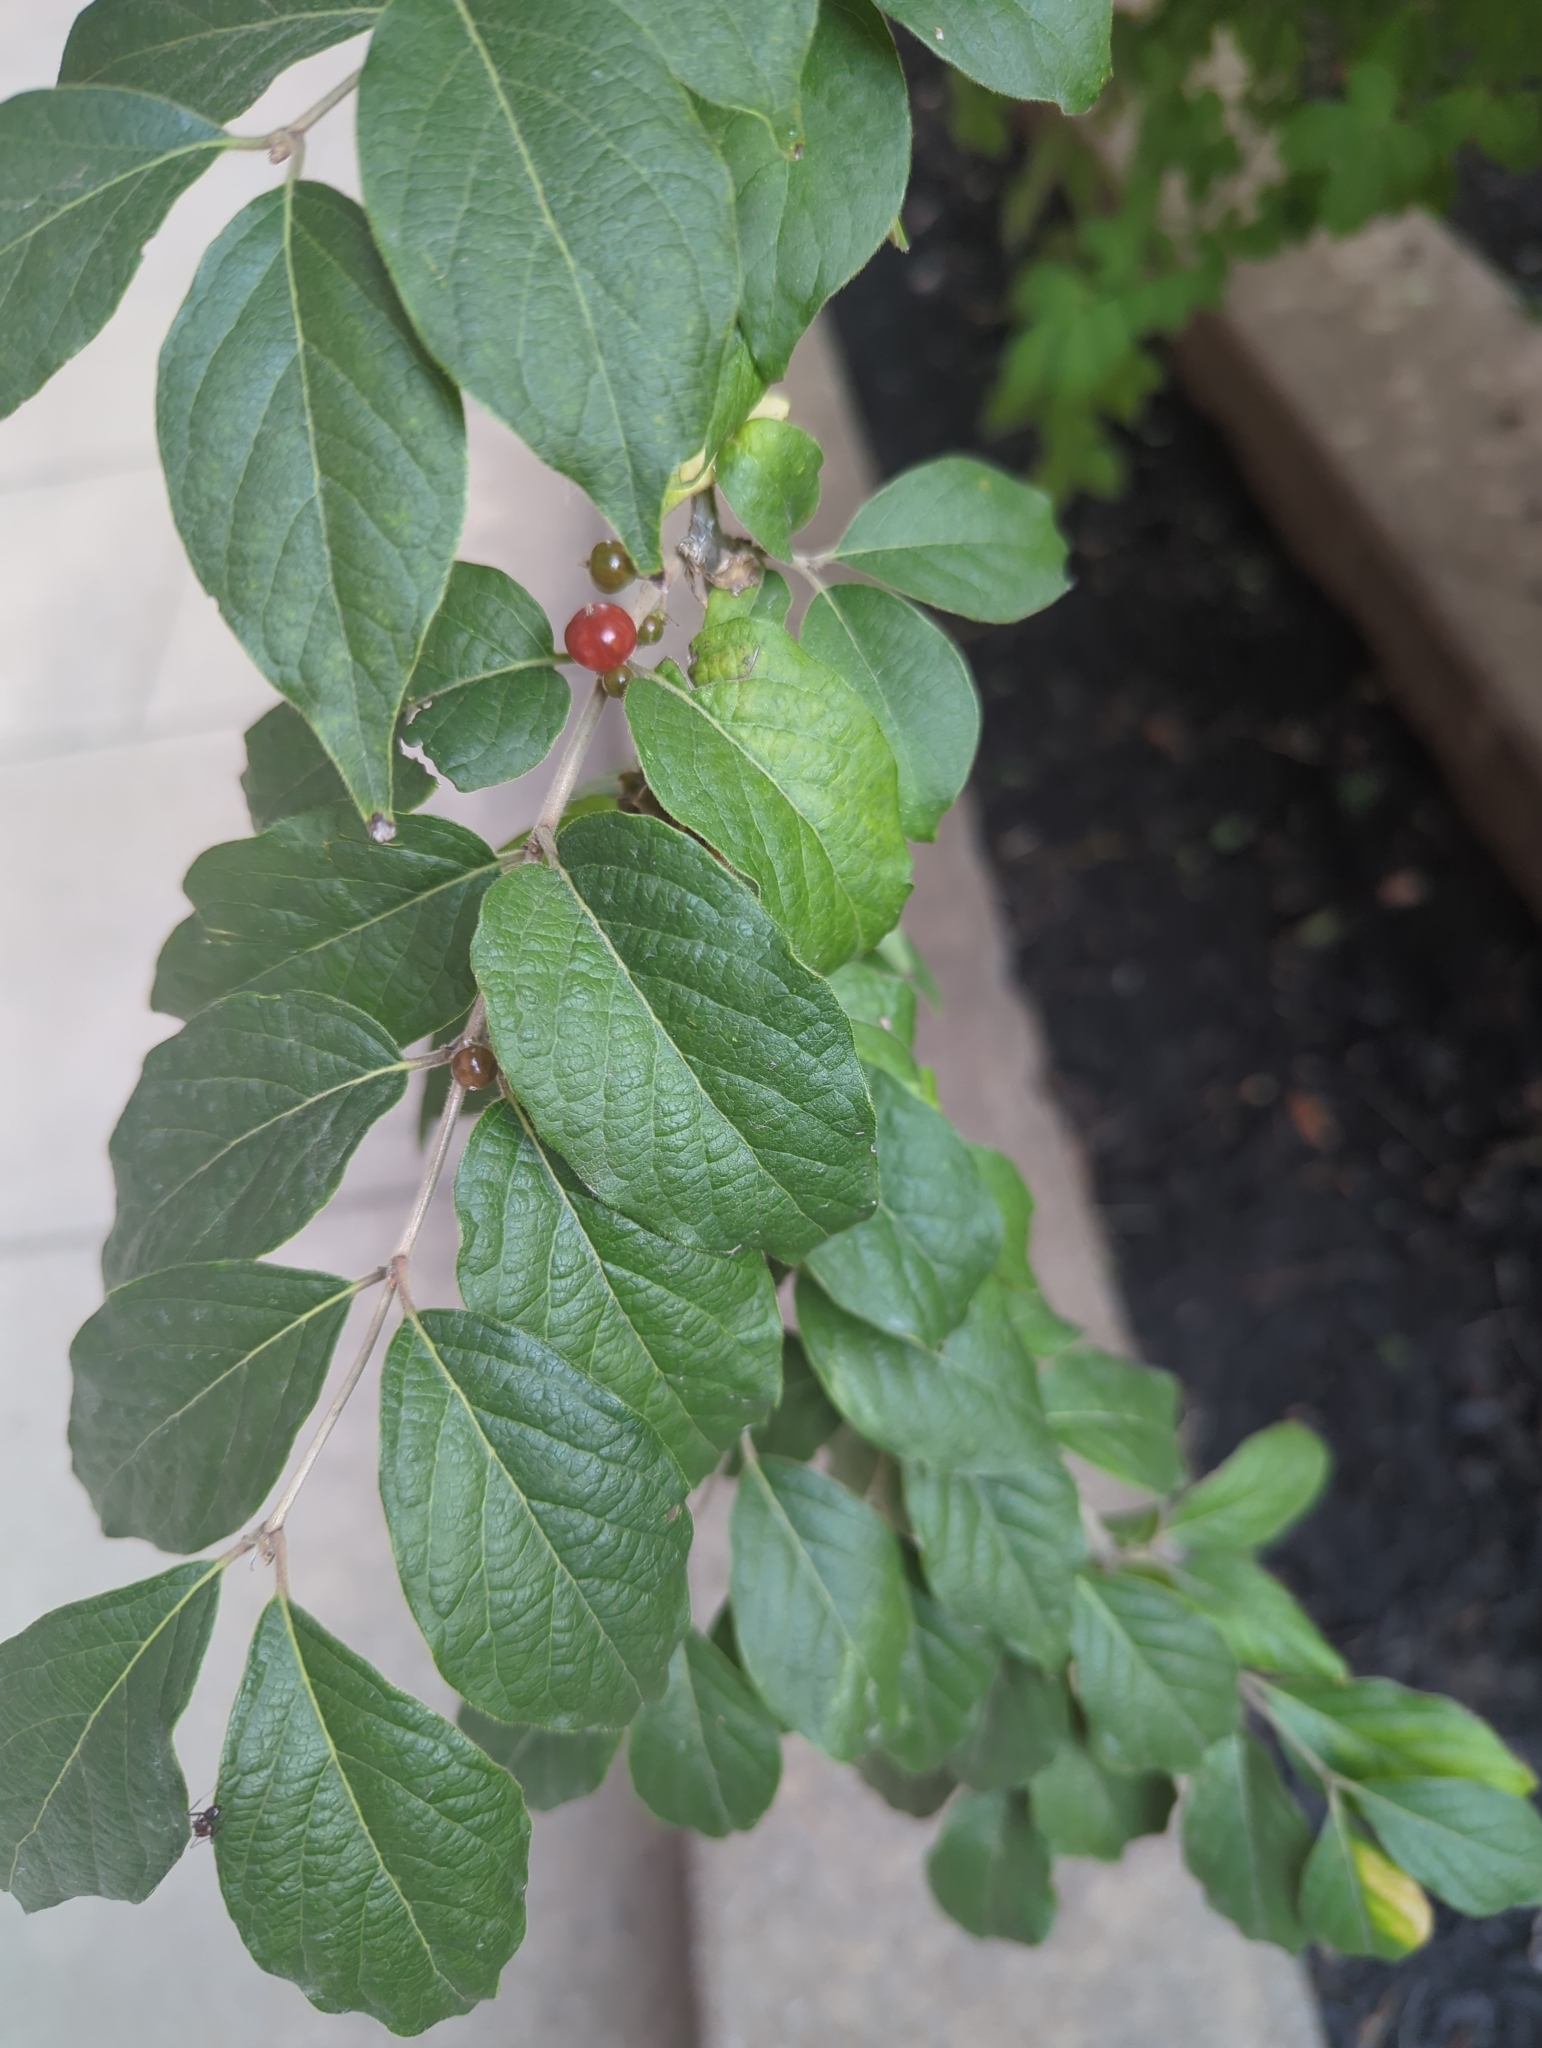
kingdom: Plantae
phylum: Tracheophyta
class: Magnoliopsida
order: Dipsacales
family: Caprifoliaceae
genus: Lonicera
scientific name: Lonicera maackii
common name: Amur honeysuckle
